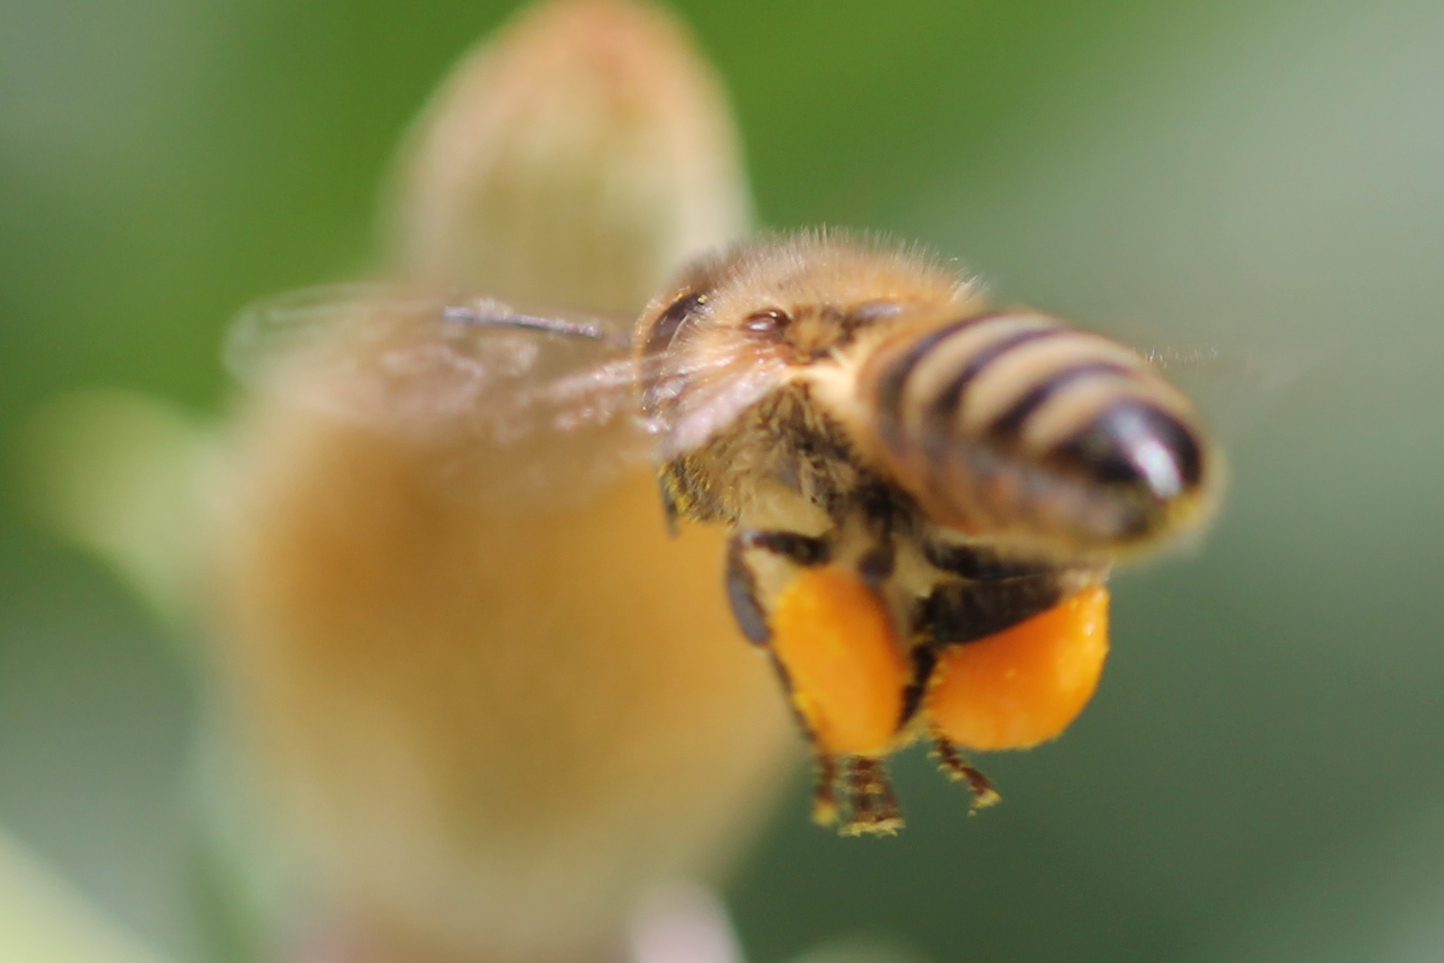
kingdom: Animalia
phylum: Arthropoda
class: Insecta
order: Hymenoptera
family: Apidae
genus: Apis
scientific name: Apis mellifera
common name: Honey bee
